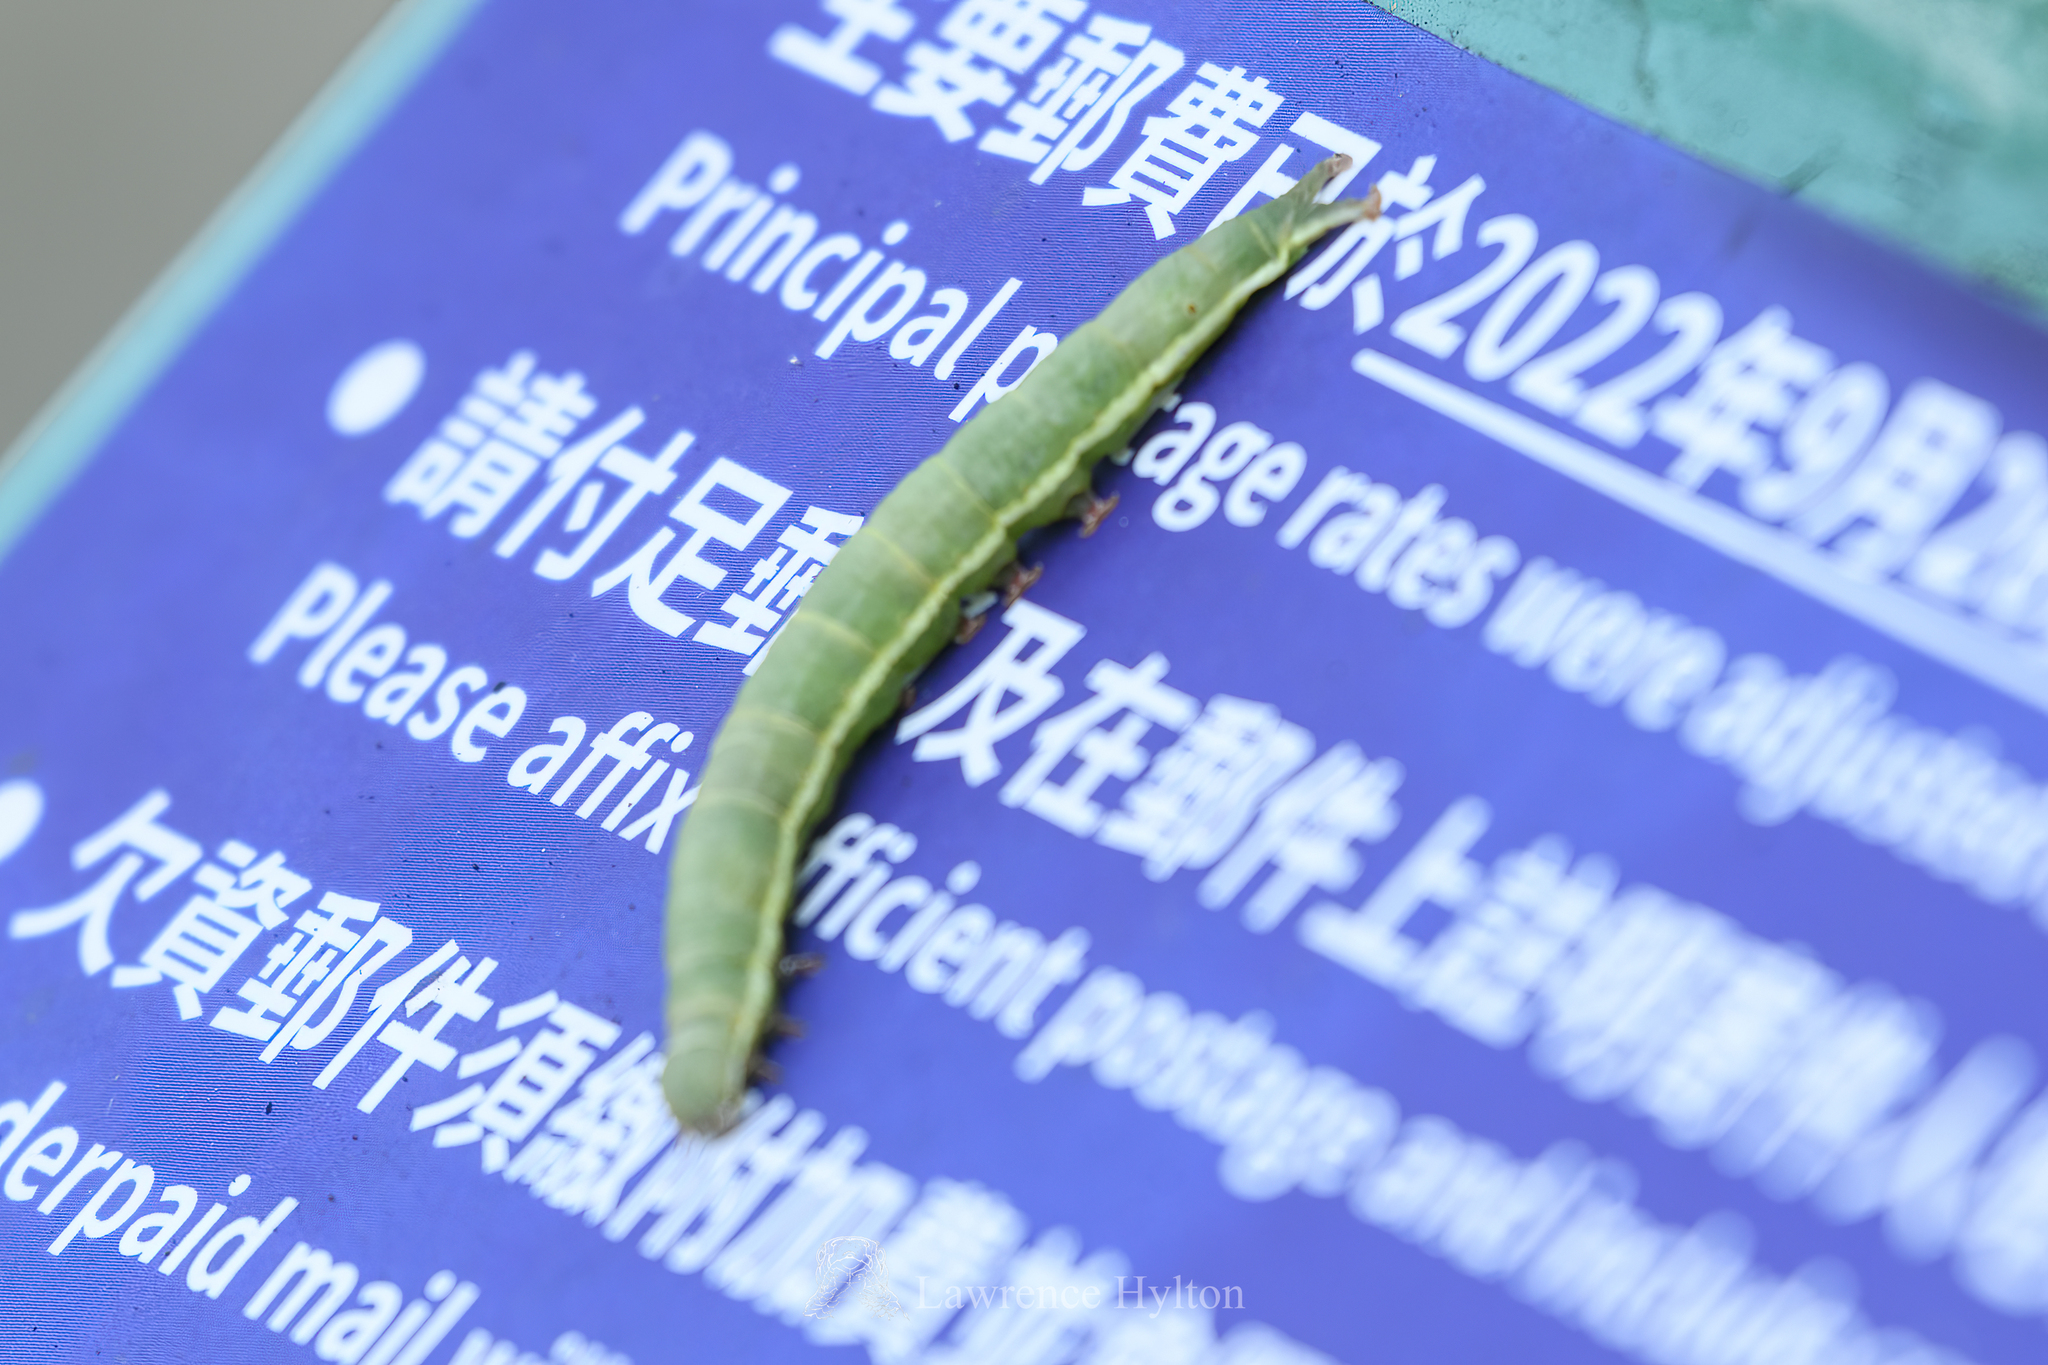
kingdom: Animalia
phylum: Arthropoda
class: Insecta
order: Lepidoptera
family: Erebidae
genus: Sympis
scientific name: Sympis rufibasis
